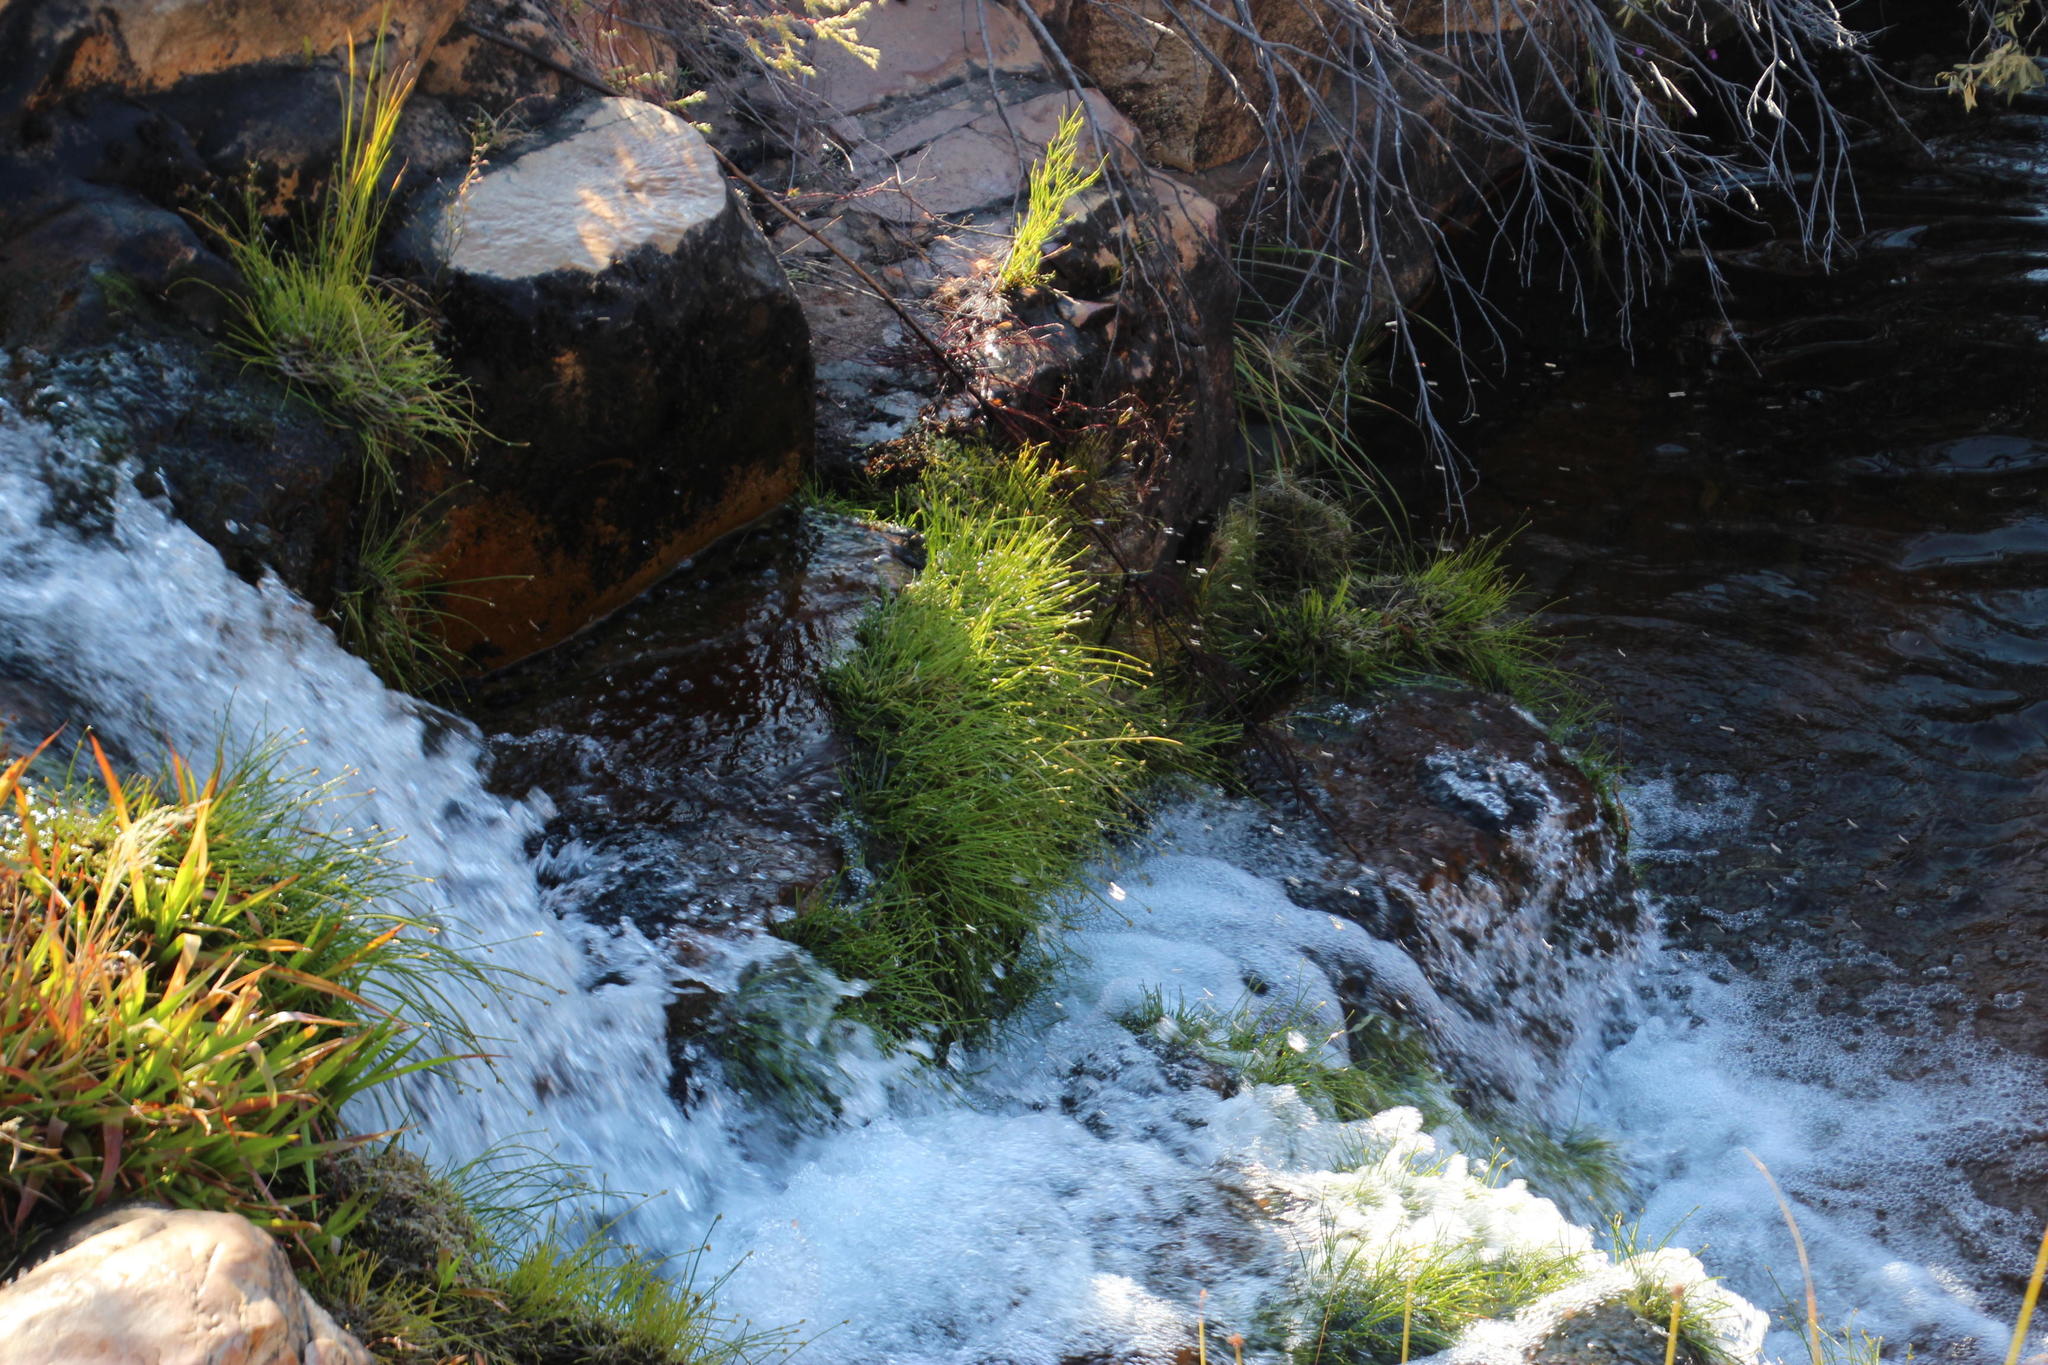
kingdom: Plantae
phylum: Tracheophyta
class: Liliopsida
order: Poales
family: Cyperaceae
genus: Isolepis
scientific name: Isolepis digitata
